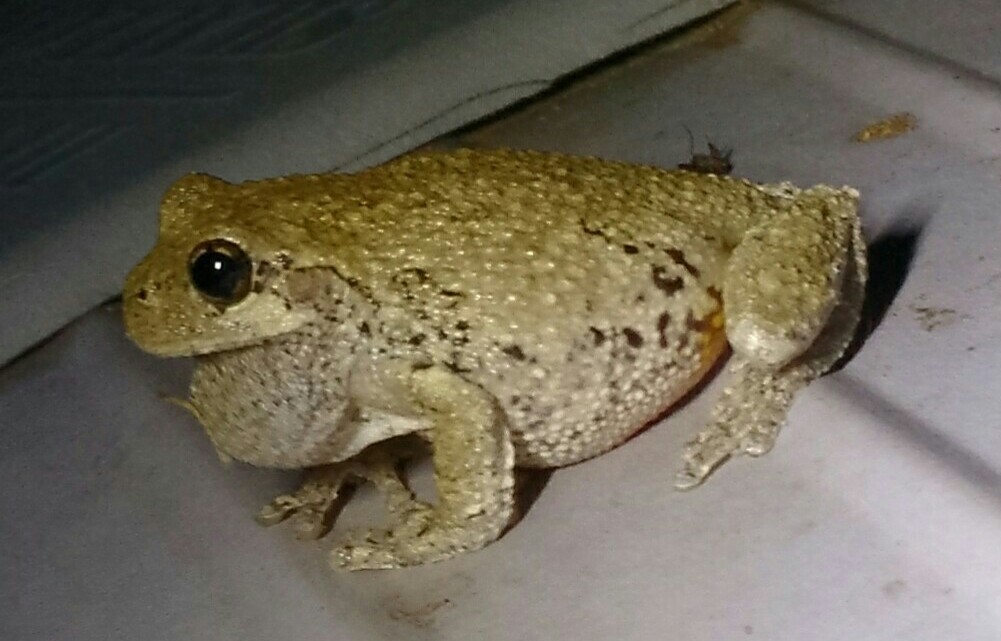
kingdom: Animalia
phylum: Chordata
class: Amphibia
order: Anura
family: Hylidae
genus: Dryophytes
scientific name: Dryophytes versicolor
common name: Gray treefrog
